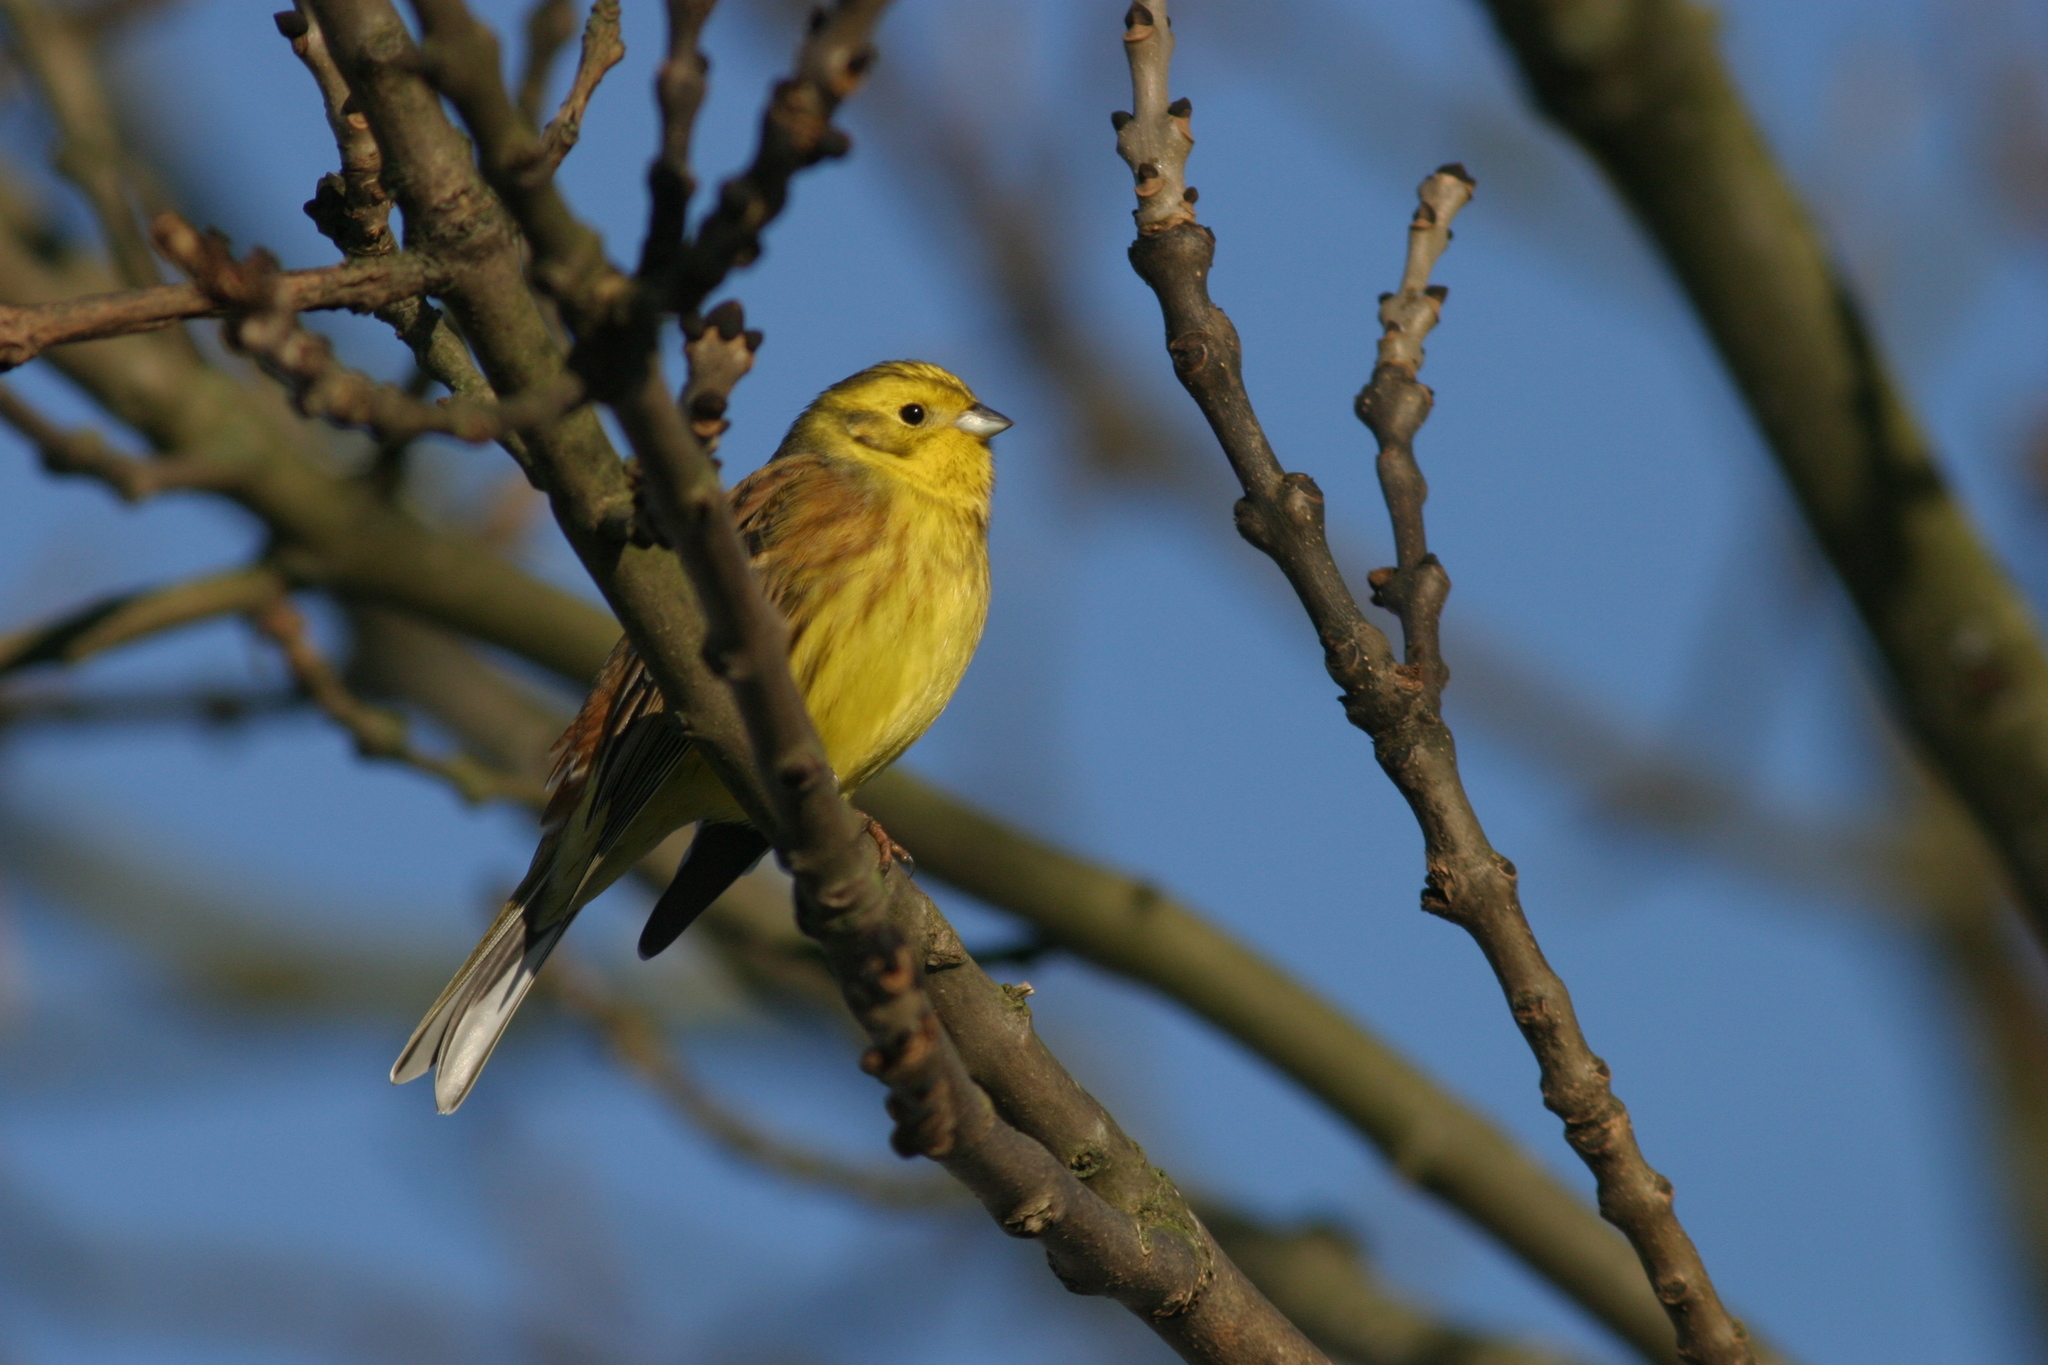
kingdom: Animalia
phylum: Chordata
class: Aves
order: Passeriformes
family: Emberizidae
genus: Emberiza
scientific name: Emberiza citrinella
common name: Yellowhammer
